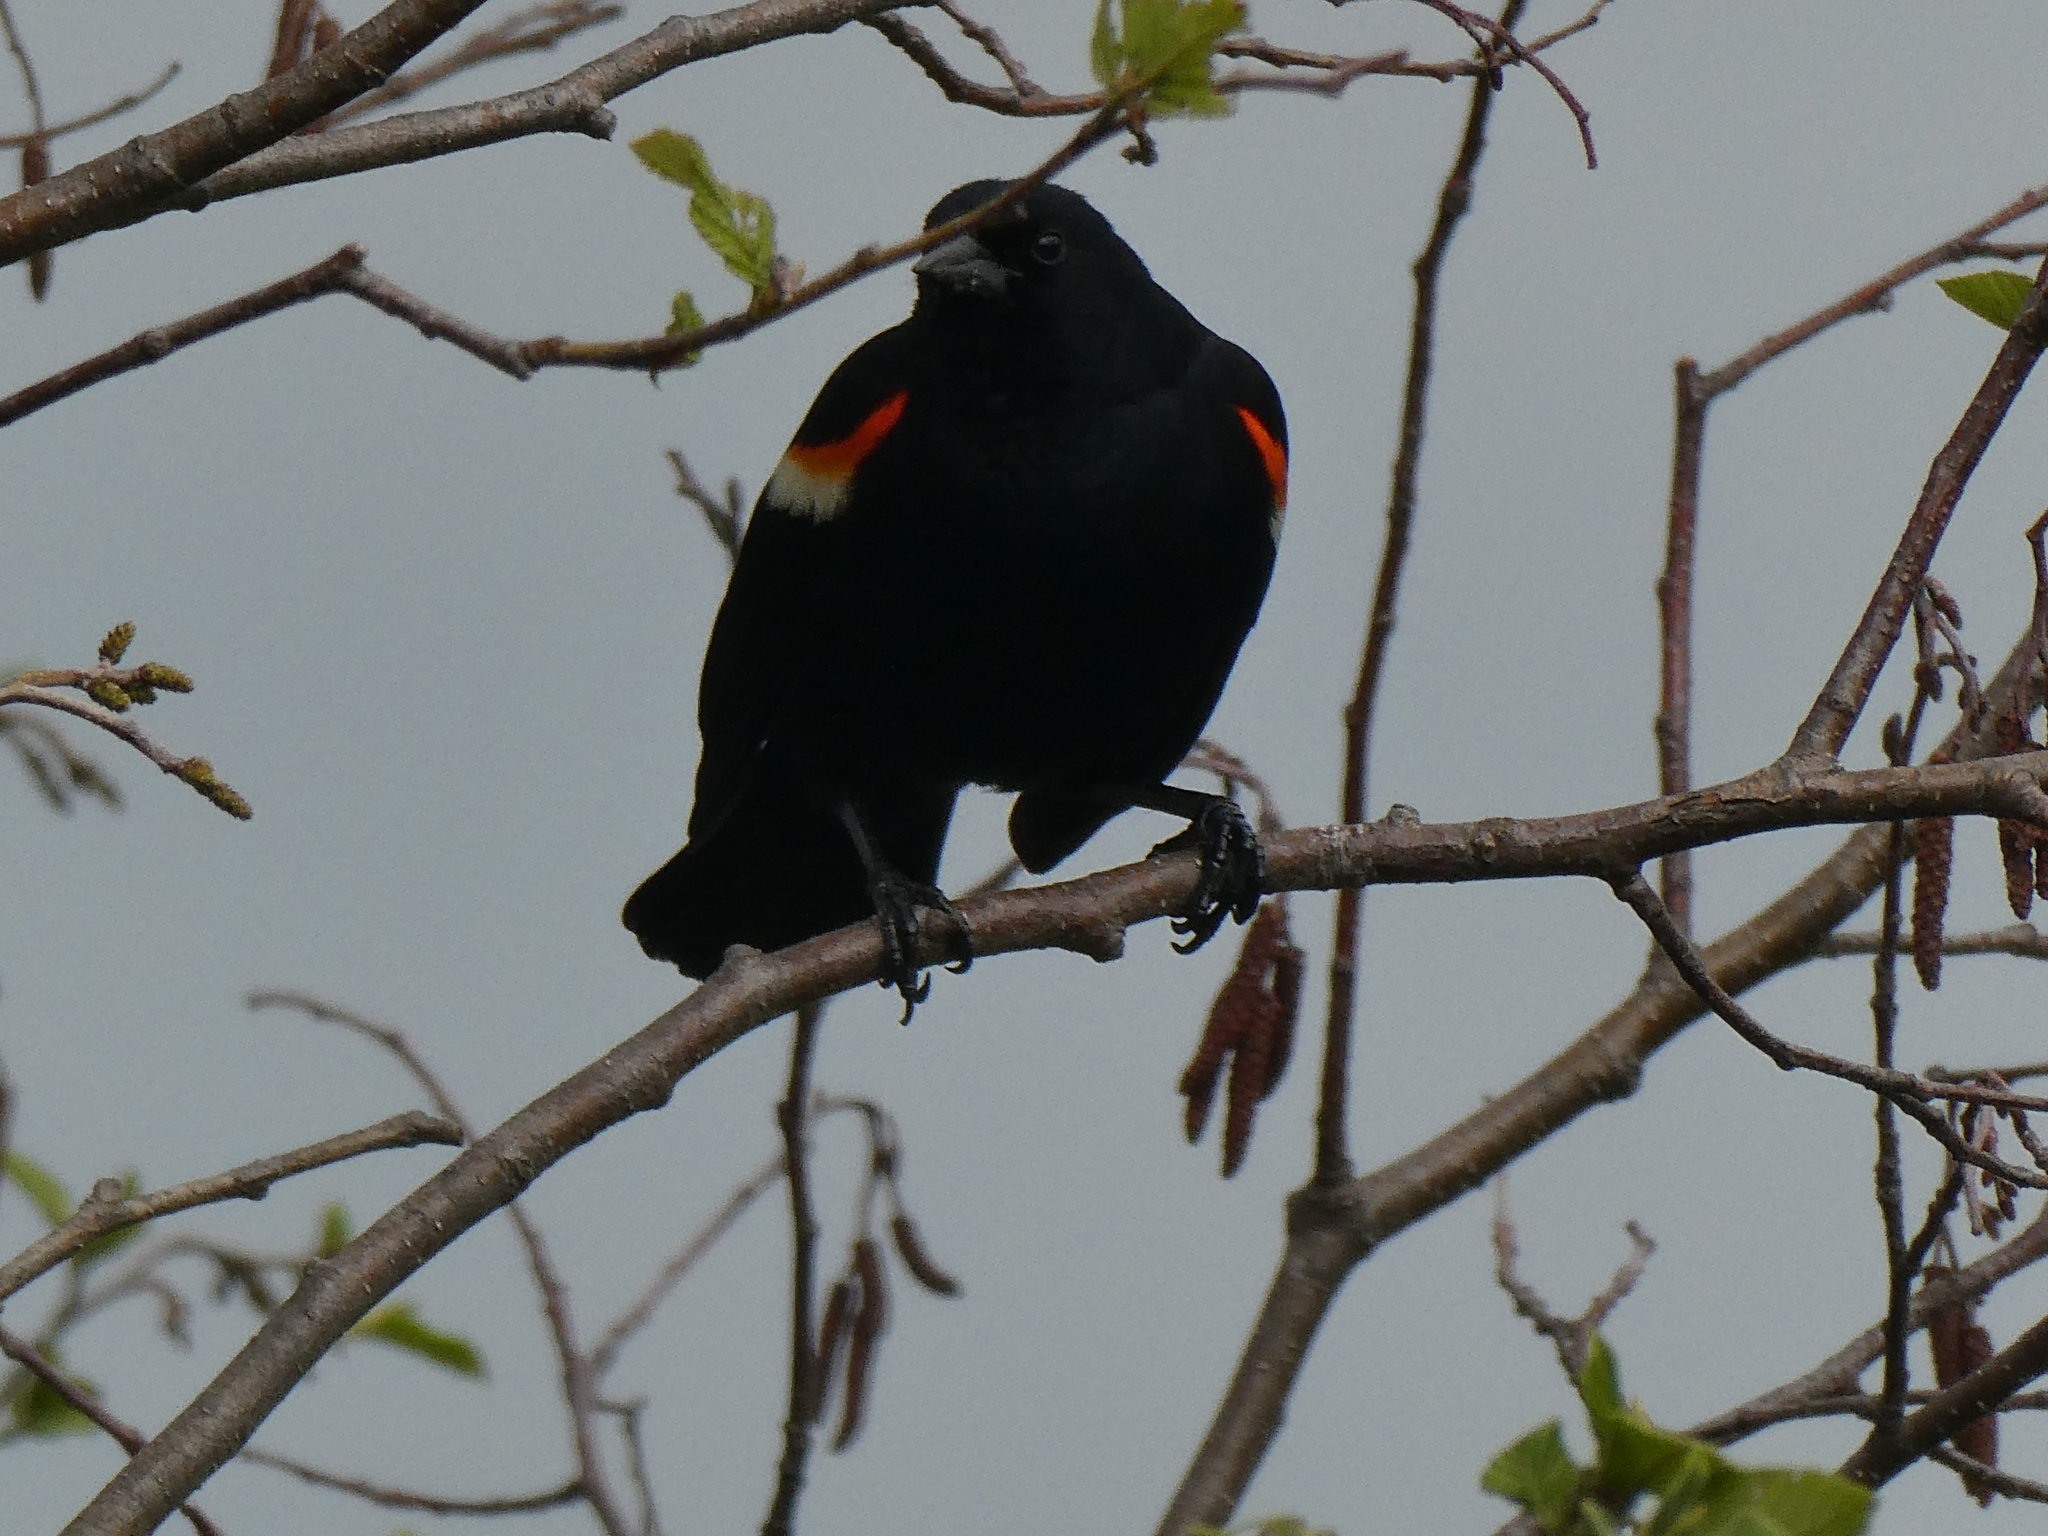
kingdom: Animalia
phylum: Chordata
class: Aves
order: Passeriformes
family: Icteridae
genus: Agelaius
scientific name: Agelaius phoeniceus
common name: Red-winged blackbird
